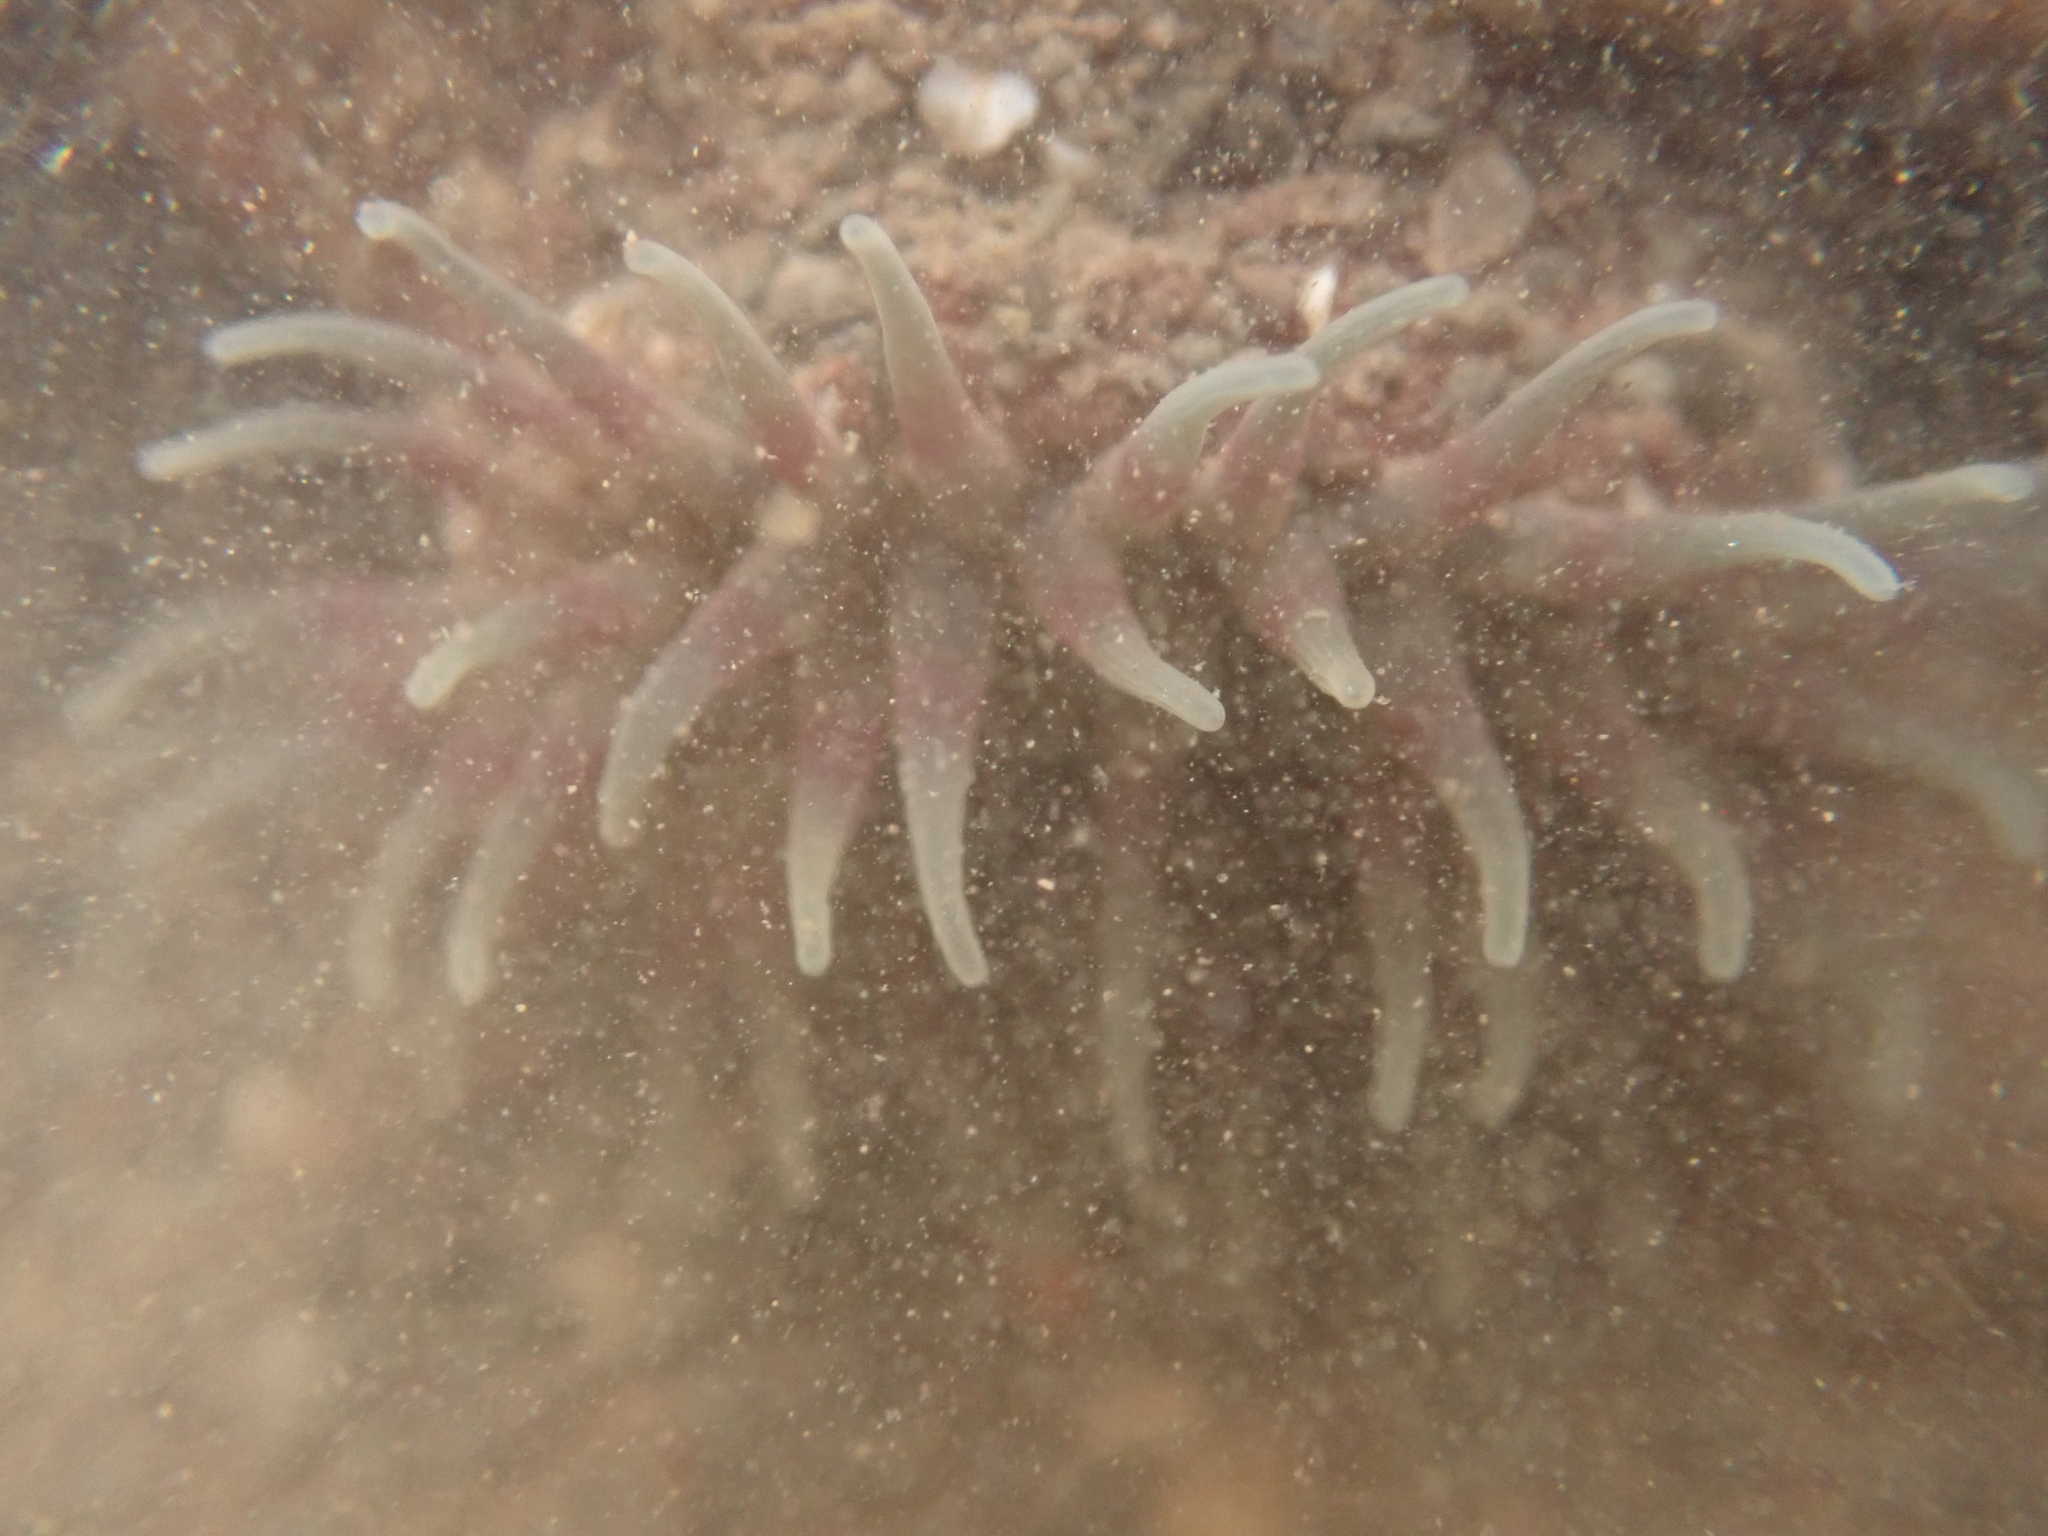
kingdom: Animalia
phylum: Cnidaria
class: Anthozoa
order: Actiniaria
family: Actiniidae
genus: Urticina
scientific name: Urticina crassicornis
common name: Mottled anemone
